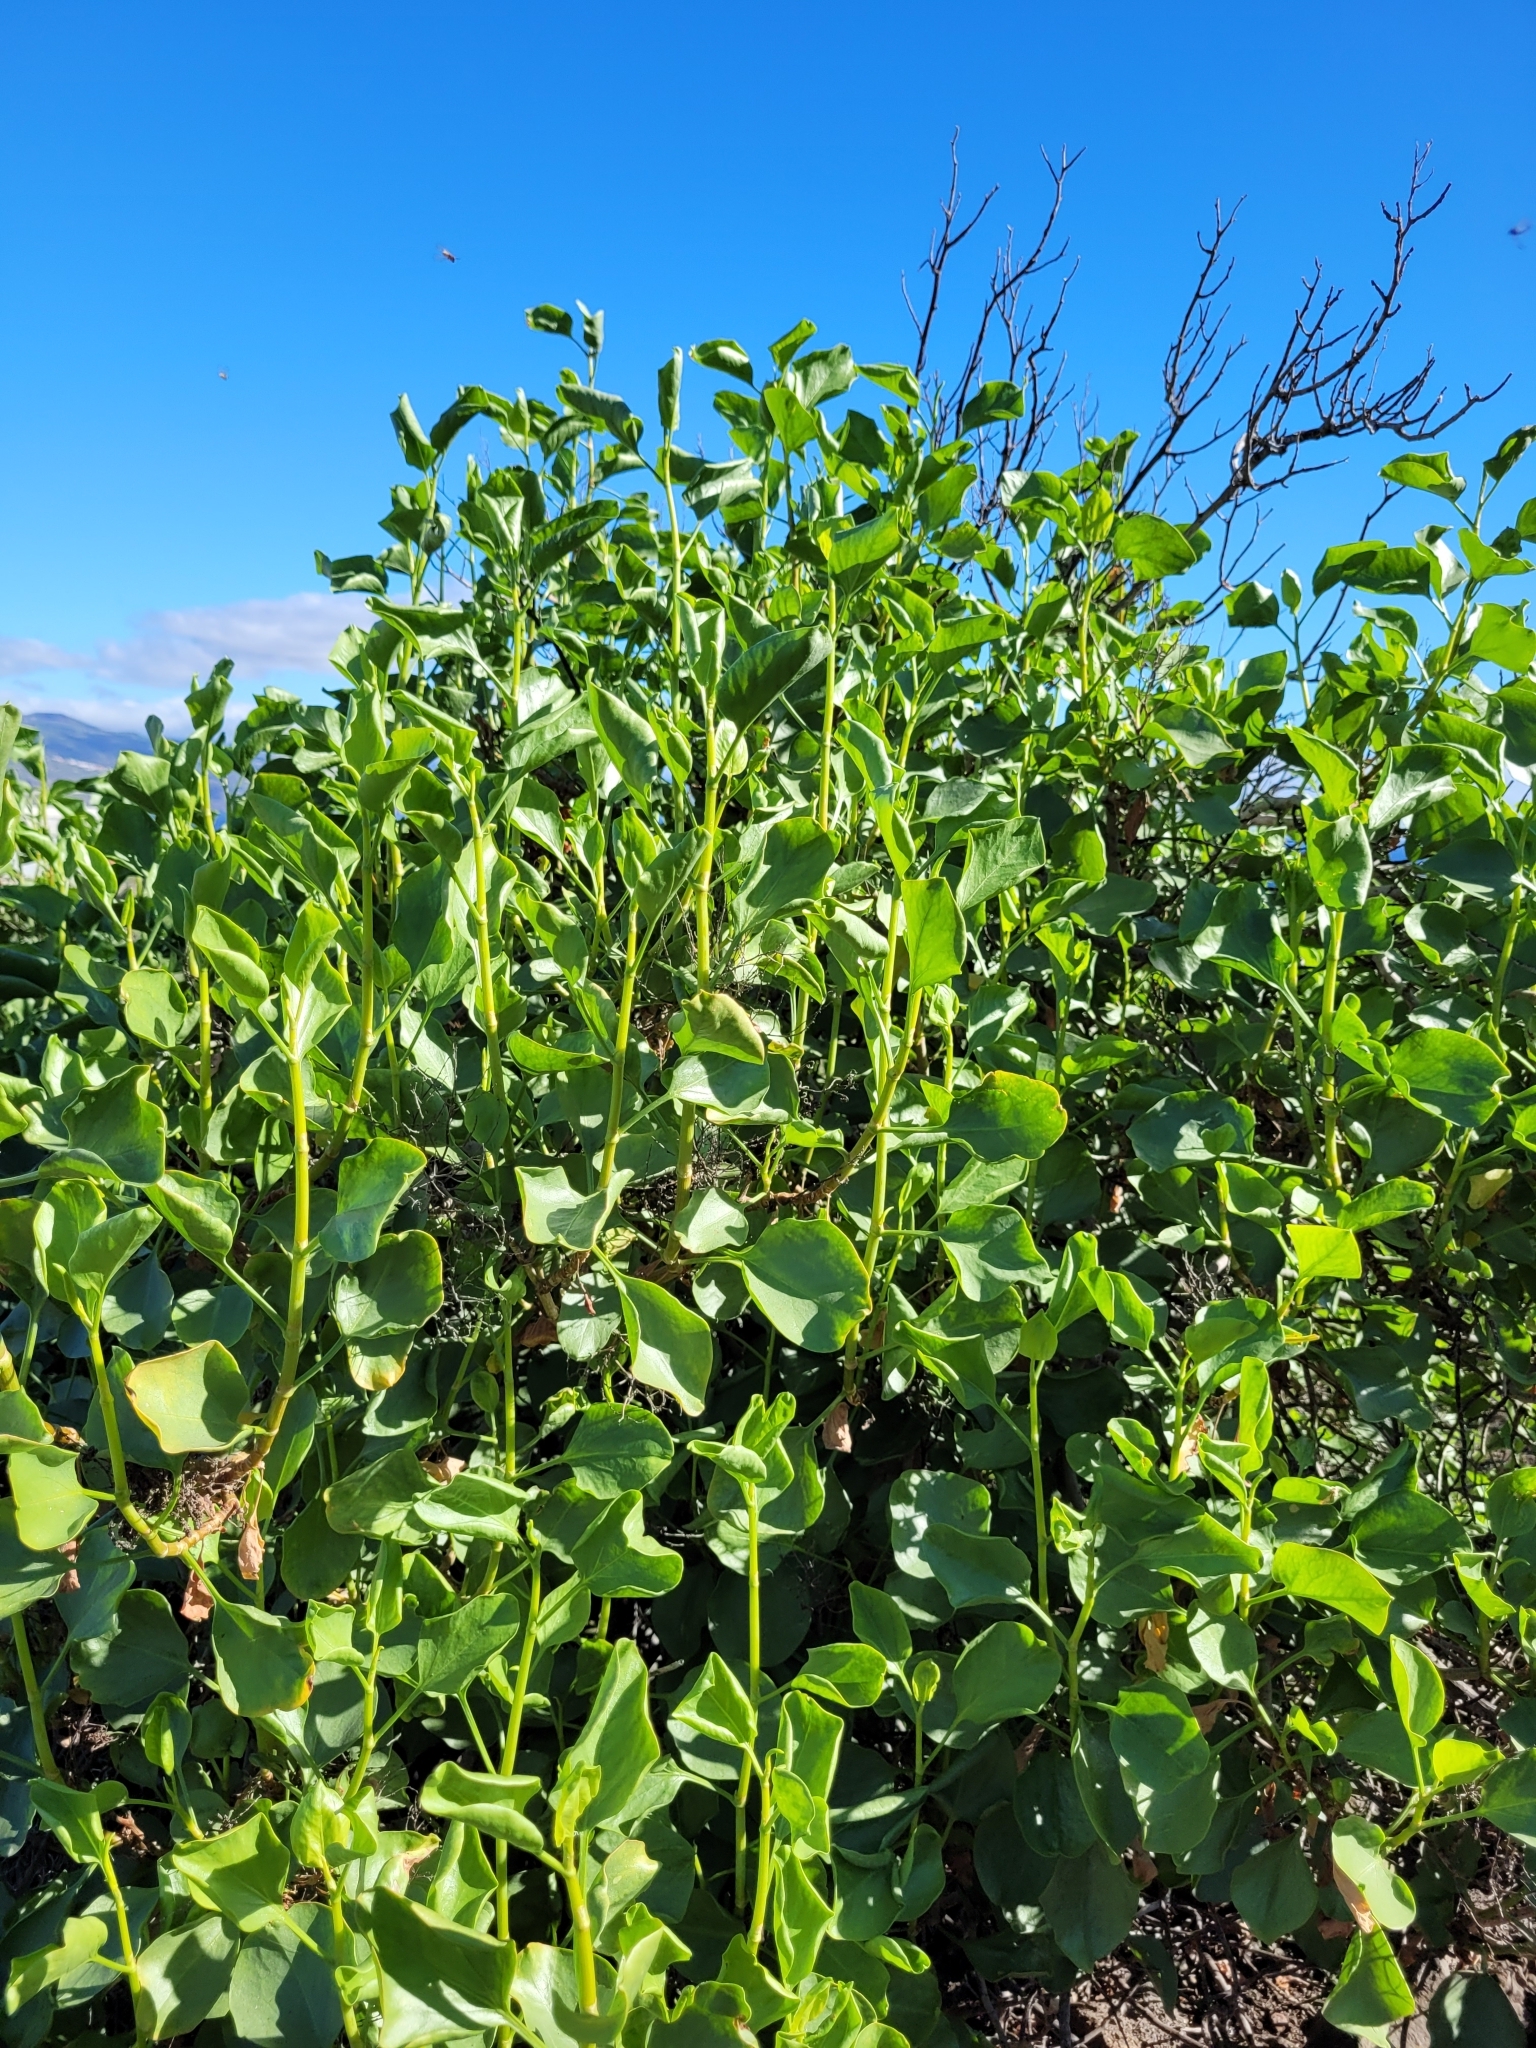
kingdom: Plantae
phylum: Tracheophyta
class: Magnoliopsida
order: Caryophyllales
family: Polygonaceae
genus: Rumex
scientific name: Rumex lunaria
